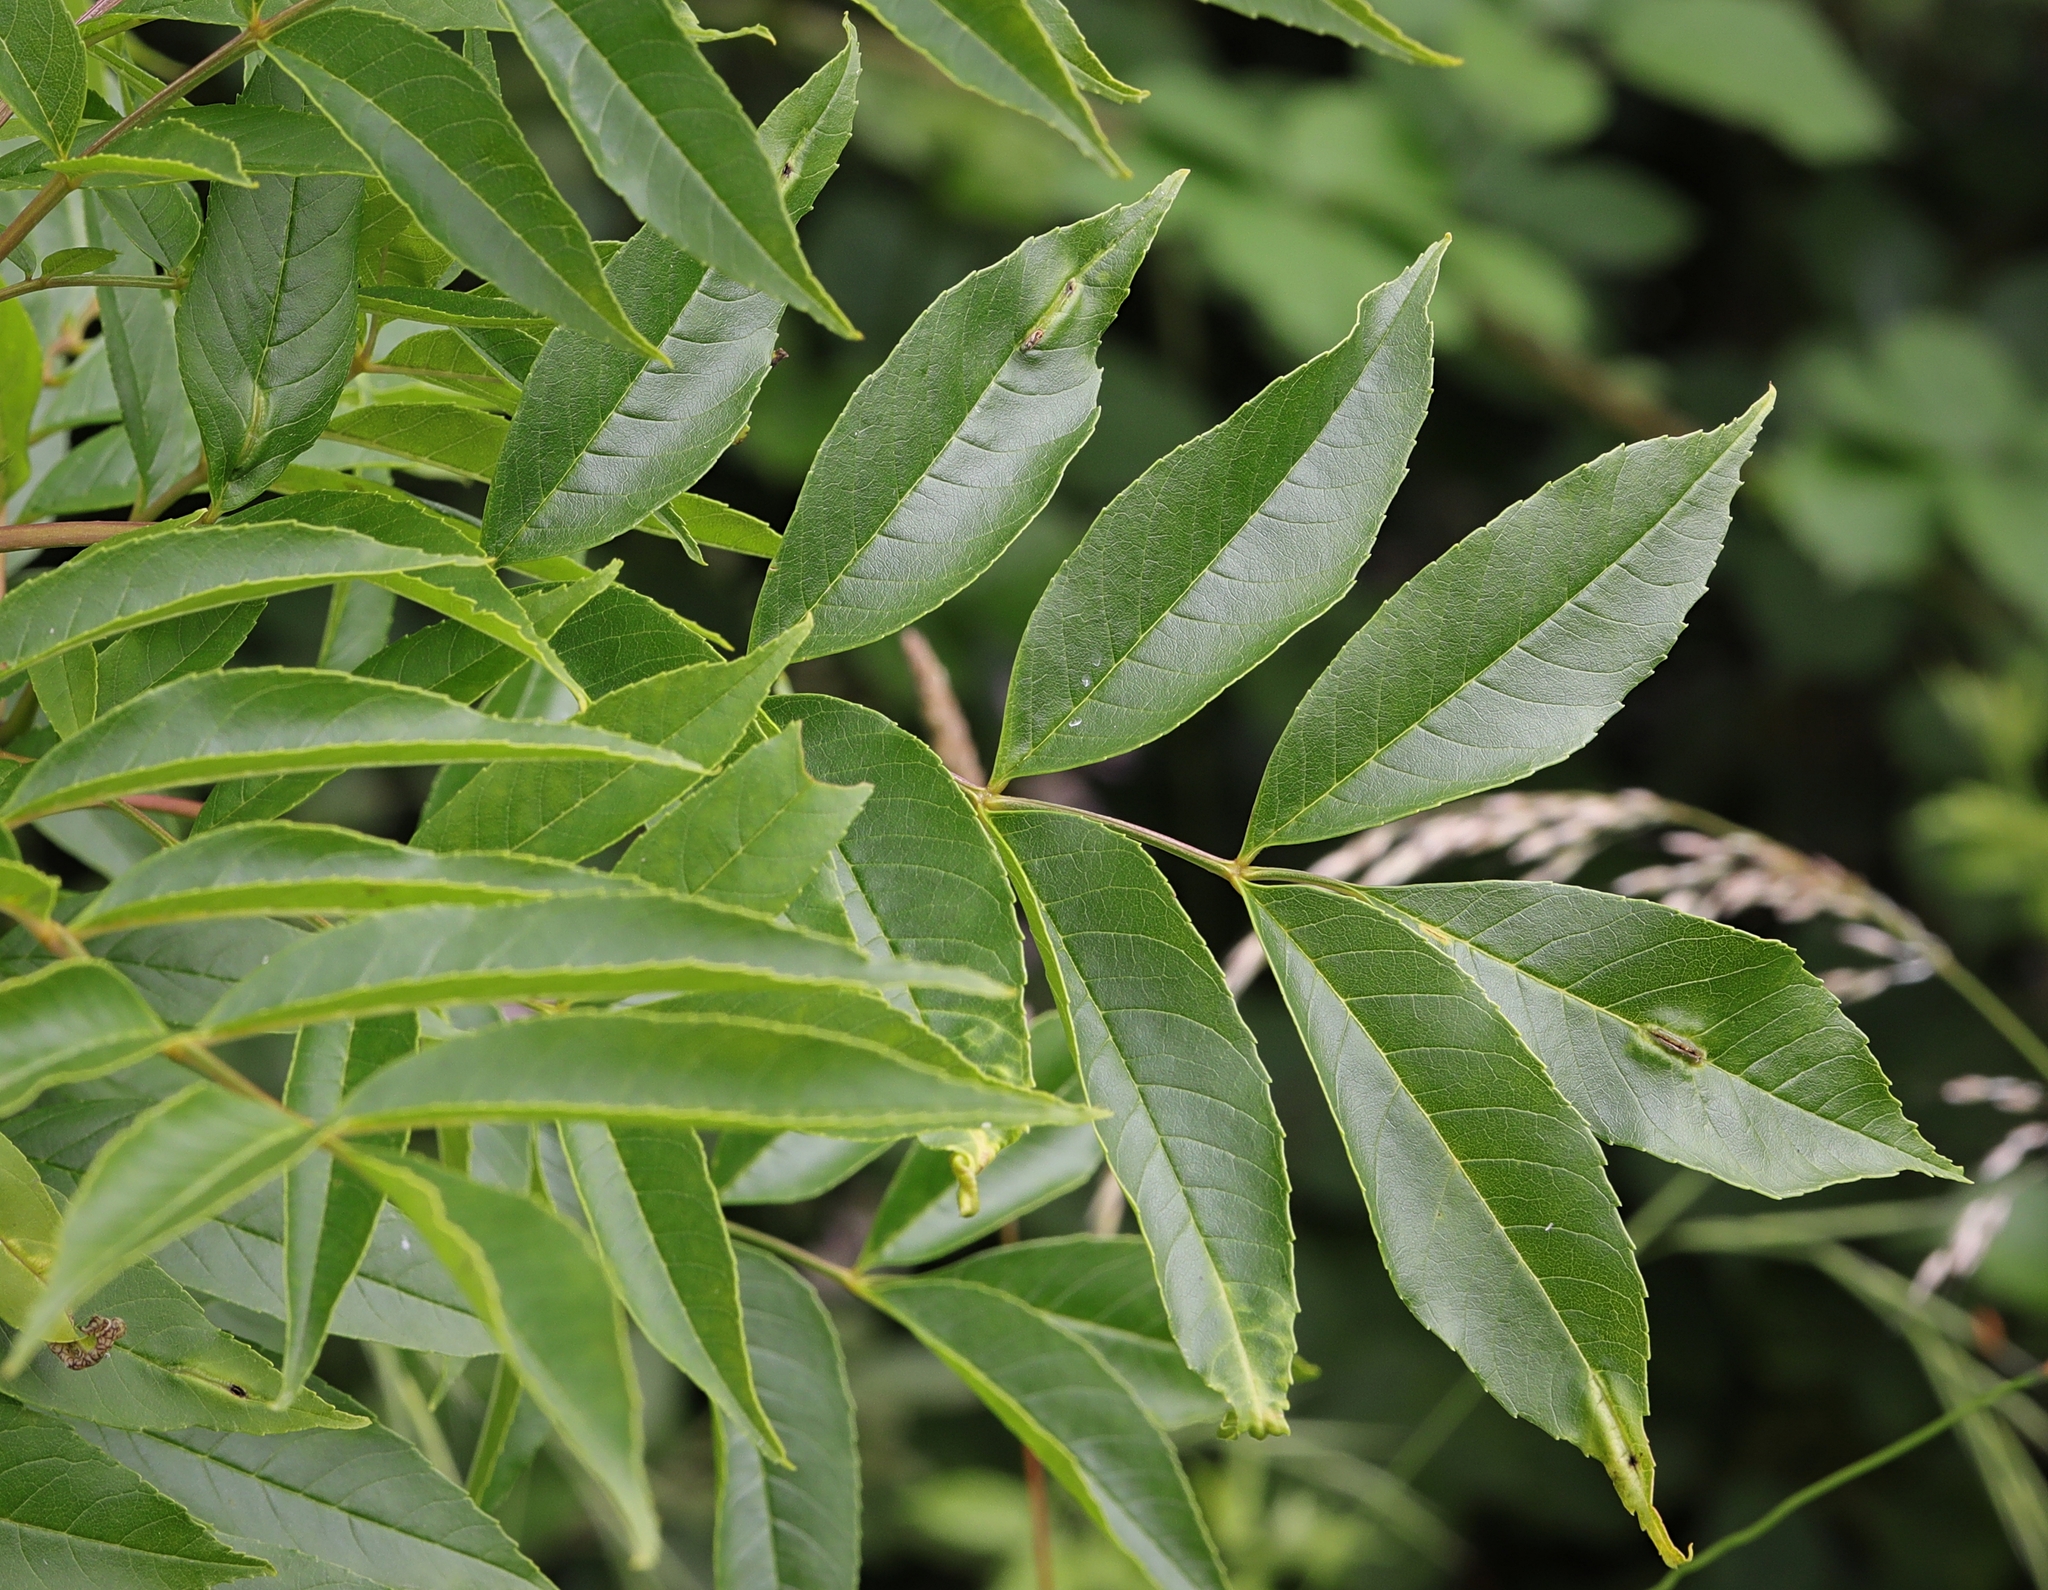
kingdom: Animalia
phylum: Arthropoda
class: Insecta
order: Diptera
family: Cecidomyiidae
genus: Dasineura
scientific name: Dasineura fraxini
